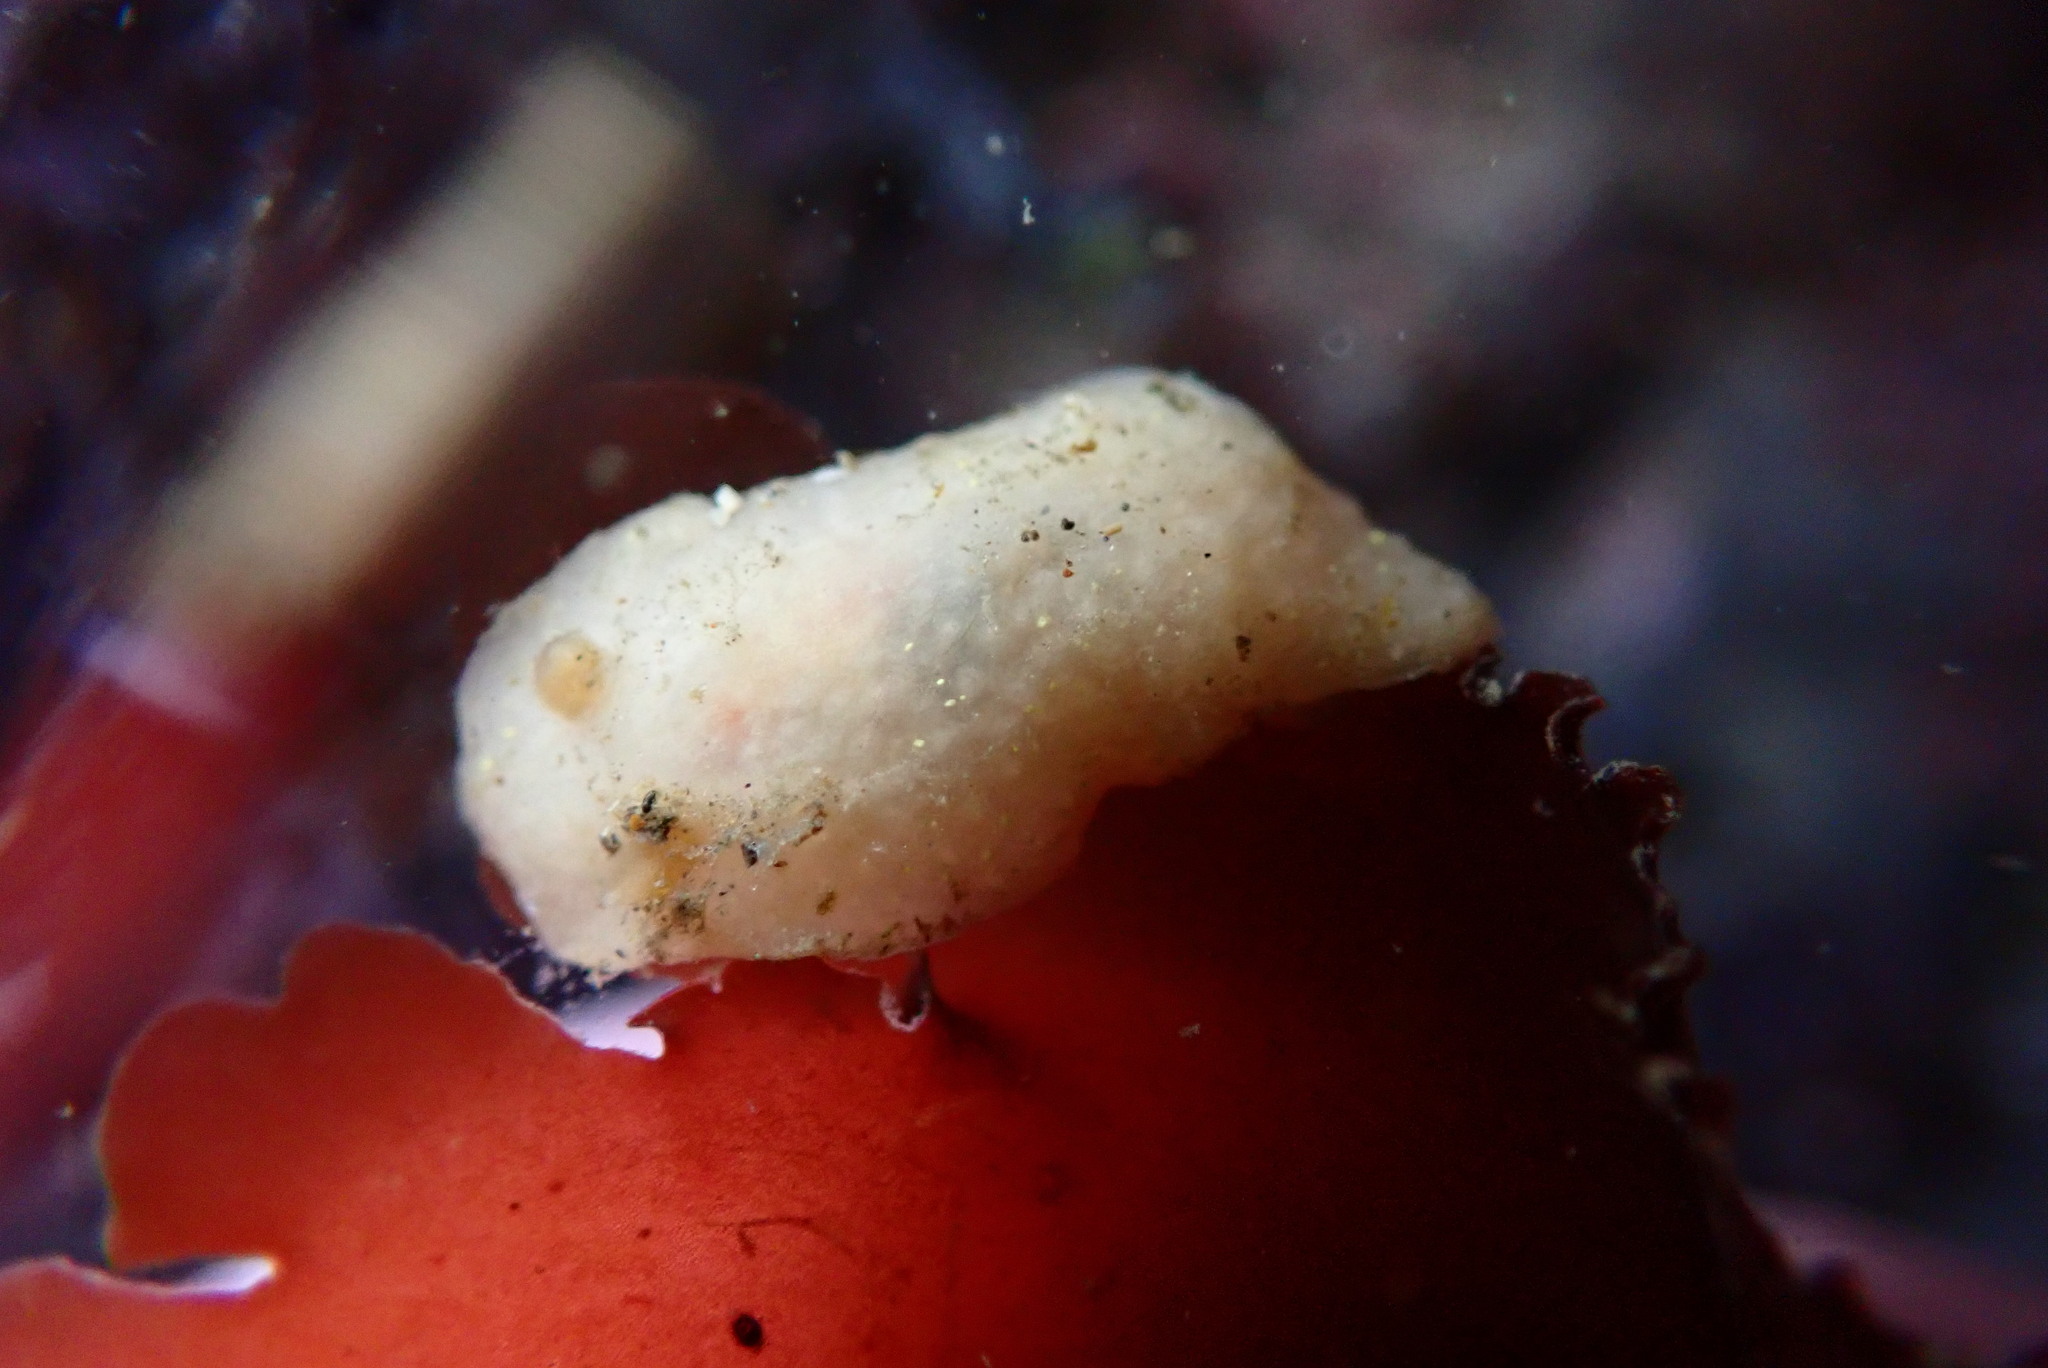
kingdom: Animalia
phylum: Mollusca
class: Gastropoda
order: Nudibranchia
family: Cadlinidae
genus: Cadlina
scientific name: Cadlina modesta
